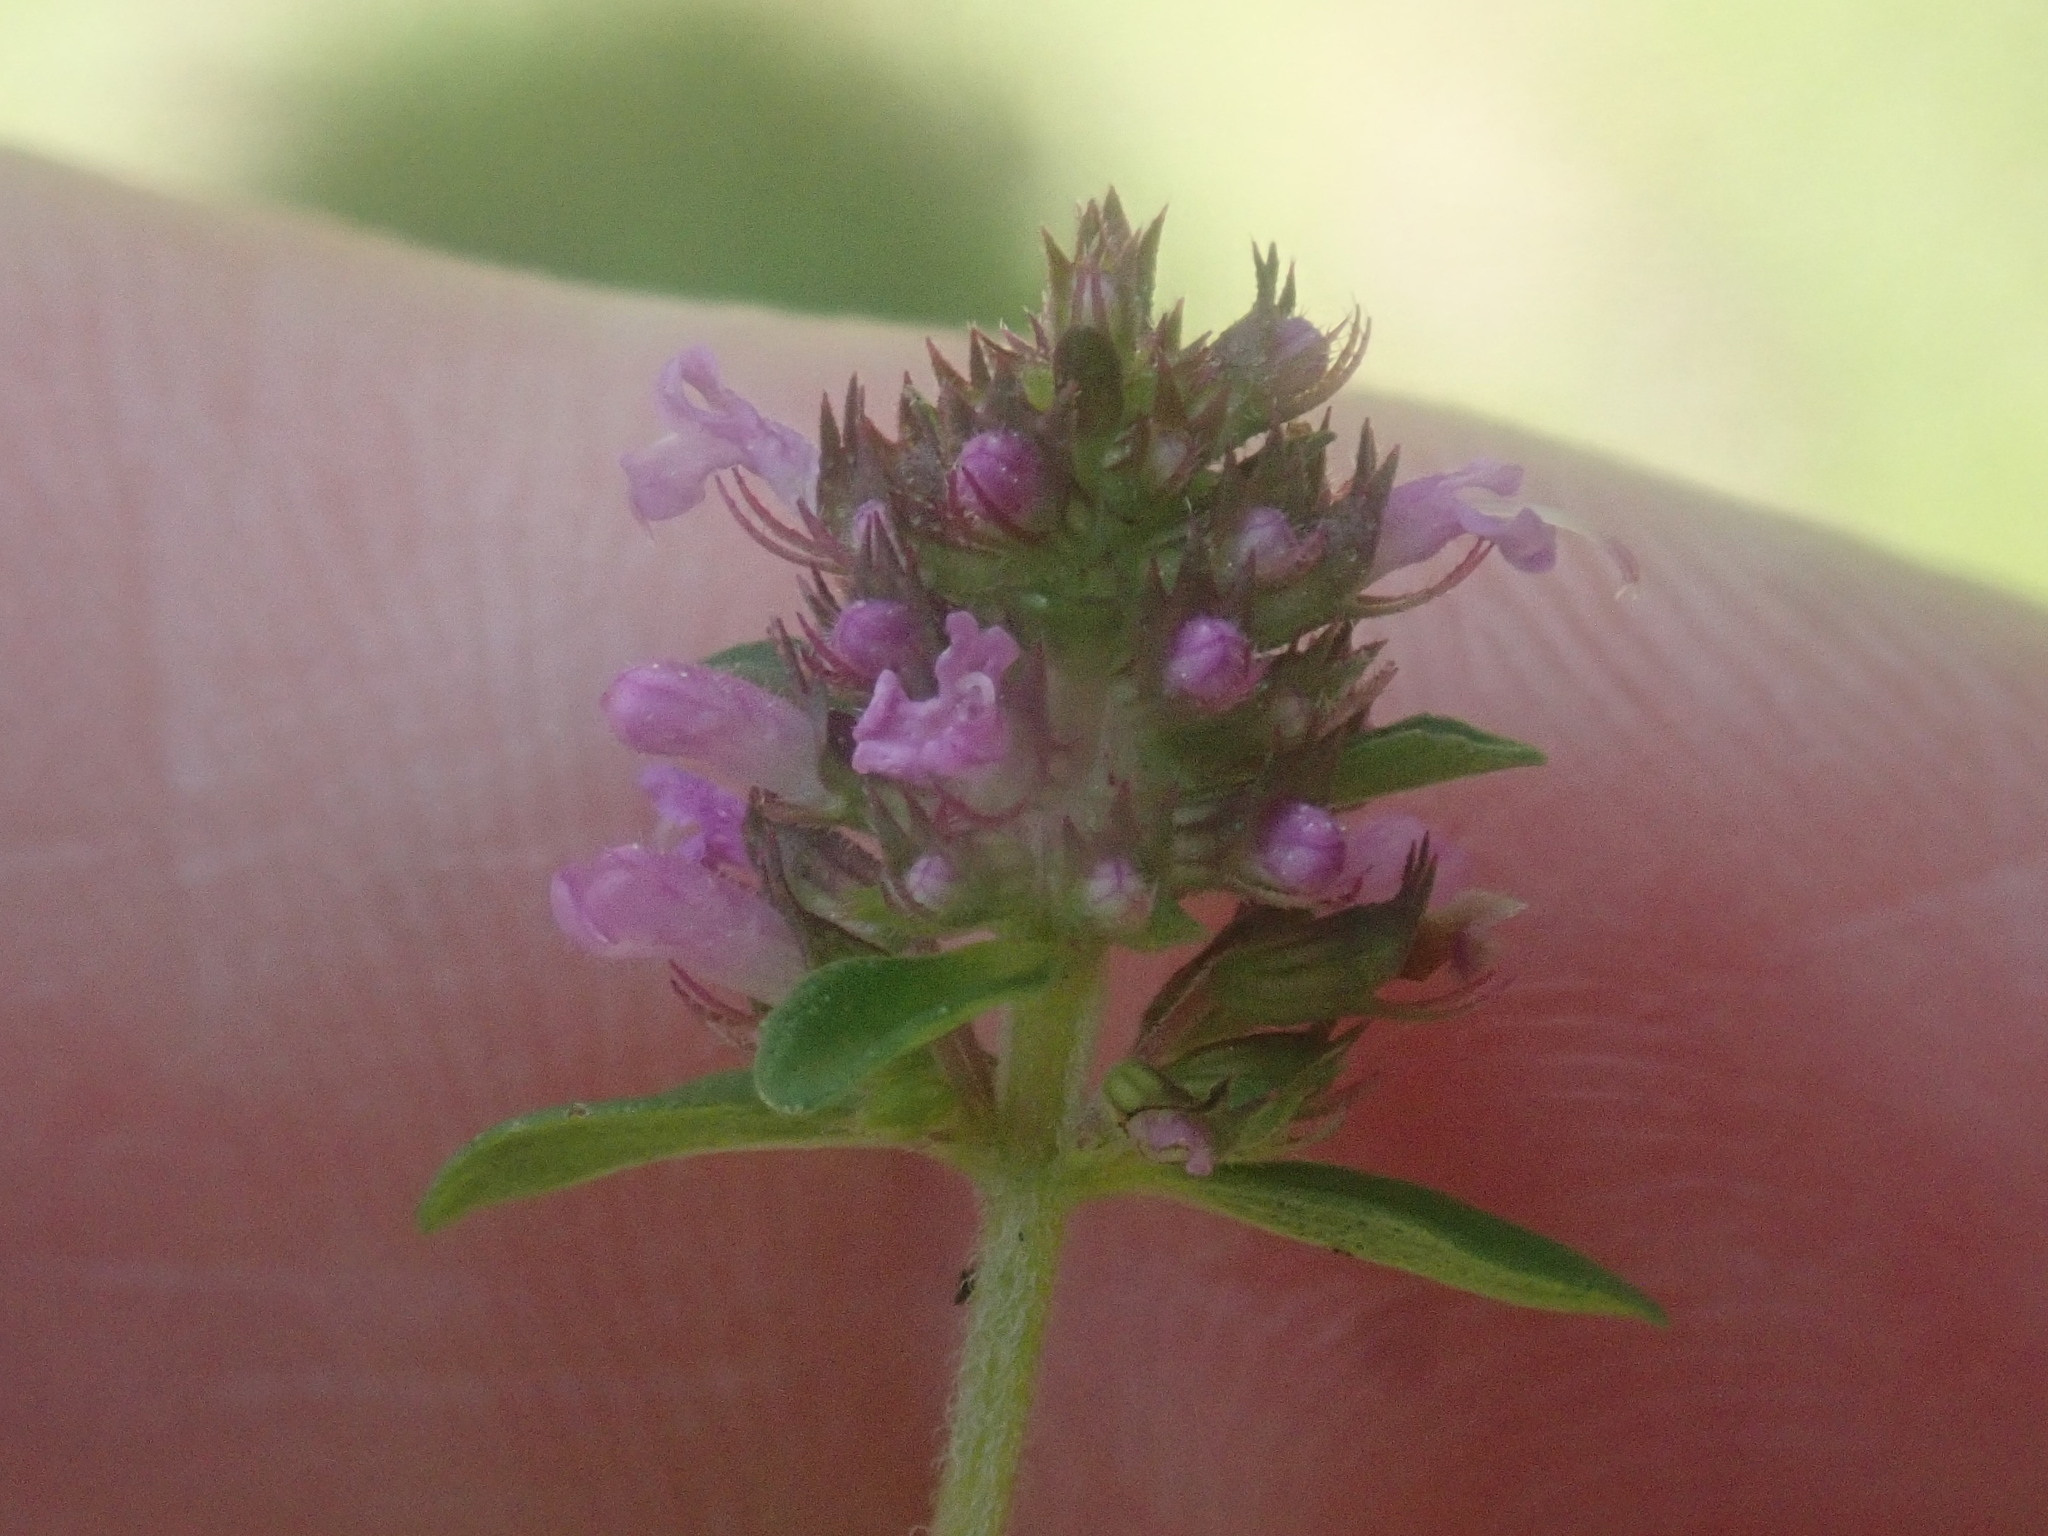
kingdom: Plantae
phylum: Tracheophyta
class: Magnoliopsida
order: Lamiales
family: Lamiaceae
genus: Thymus
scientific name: Thymus pulegioides
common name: Large thyme
